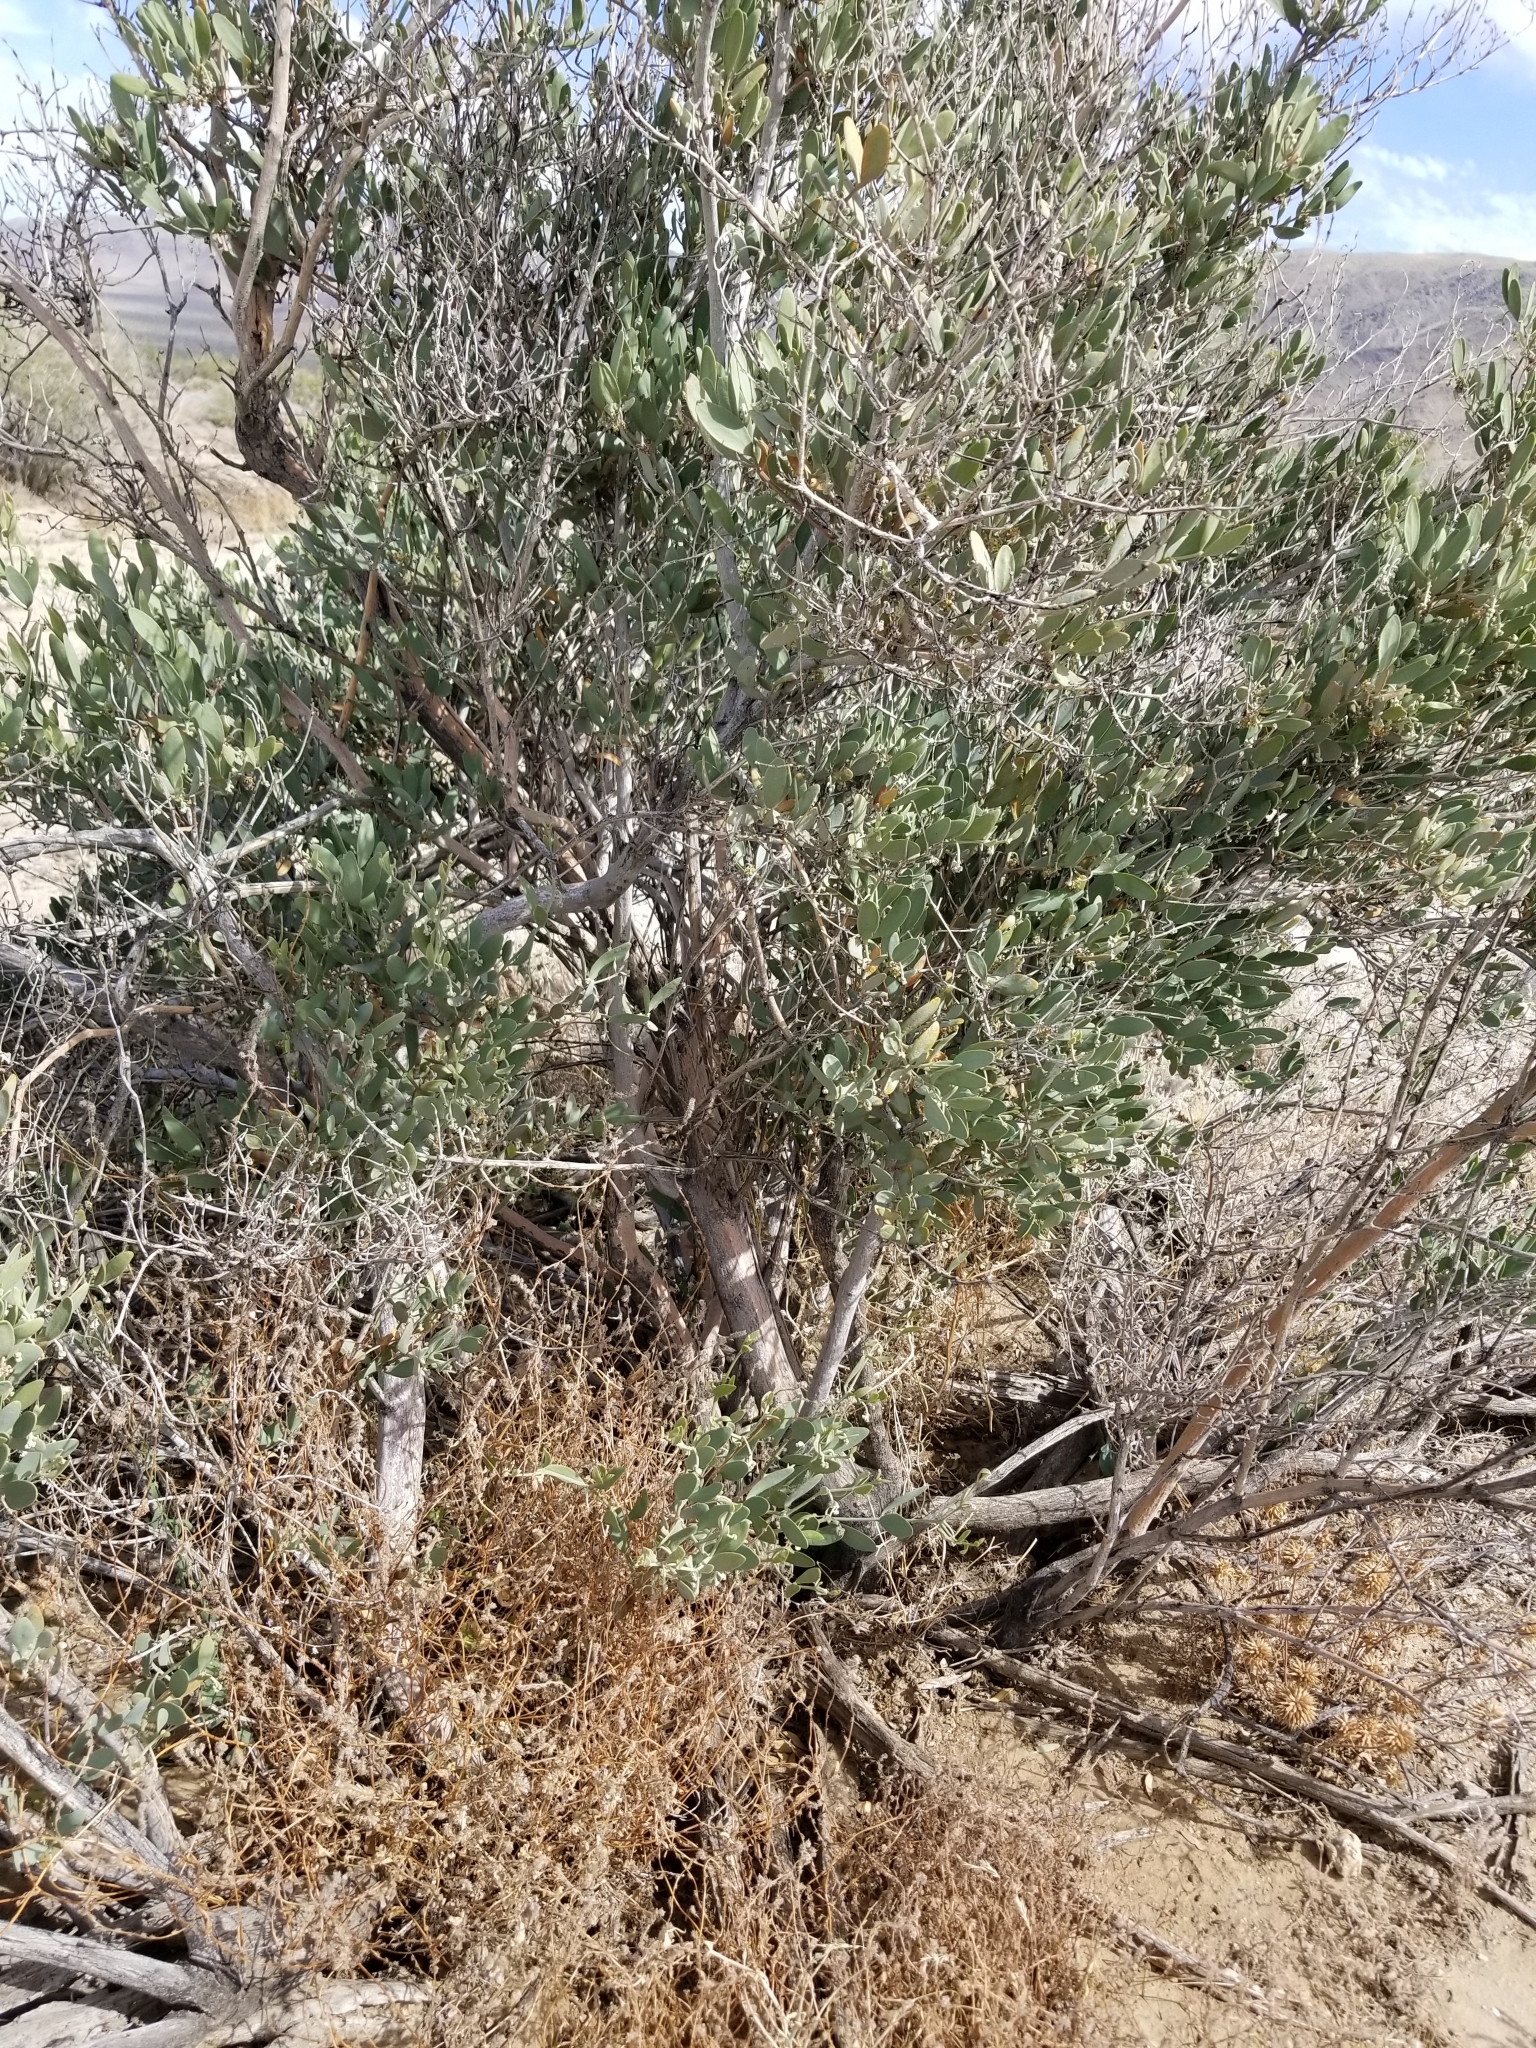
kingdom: Plantae
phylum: Tracheophyta
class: Magnoliopsida
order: Caryophyllales
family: Simmondsiaceae
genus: Simmondsia
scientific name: Simmondsia chinensis
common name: Jojoba
